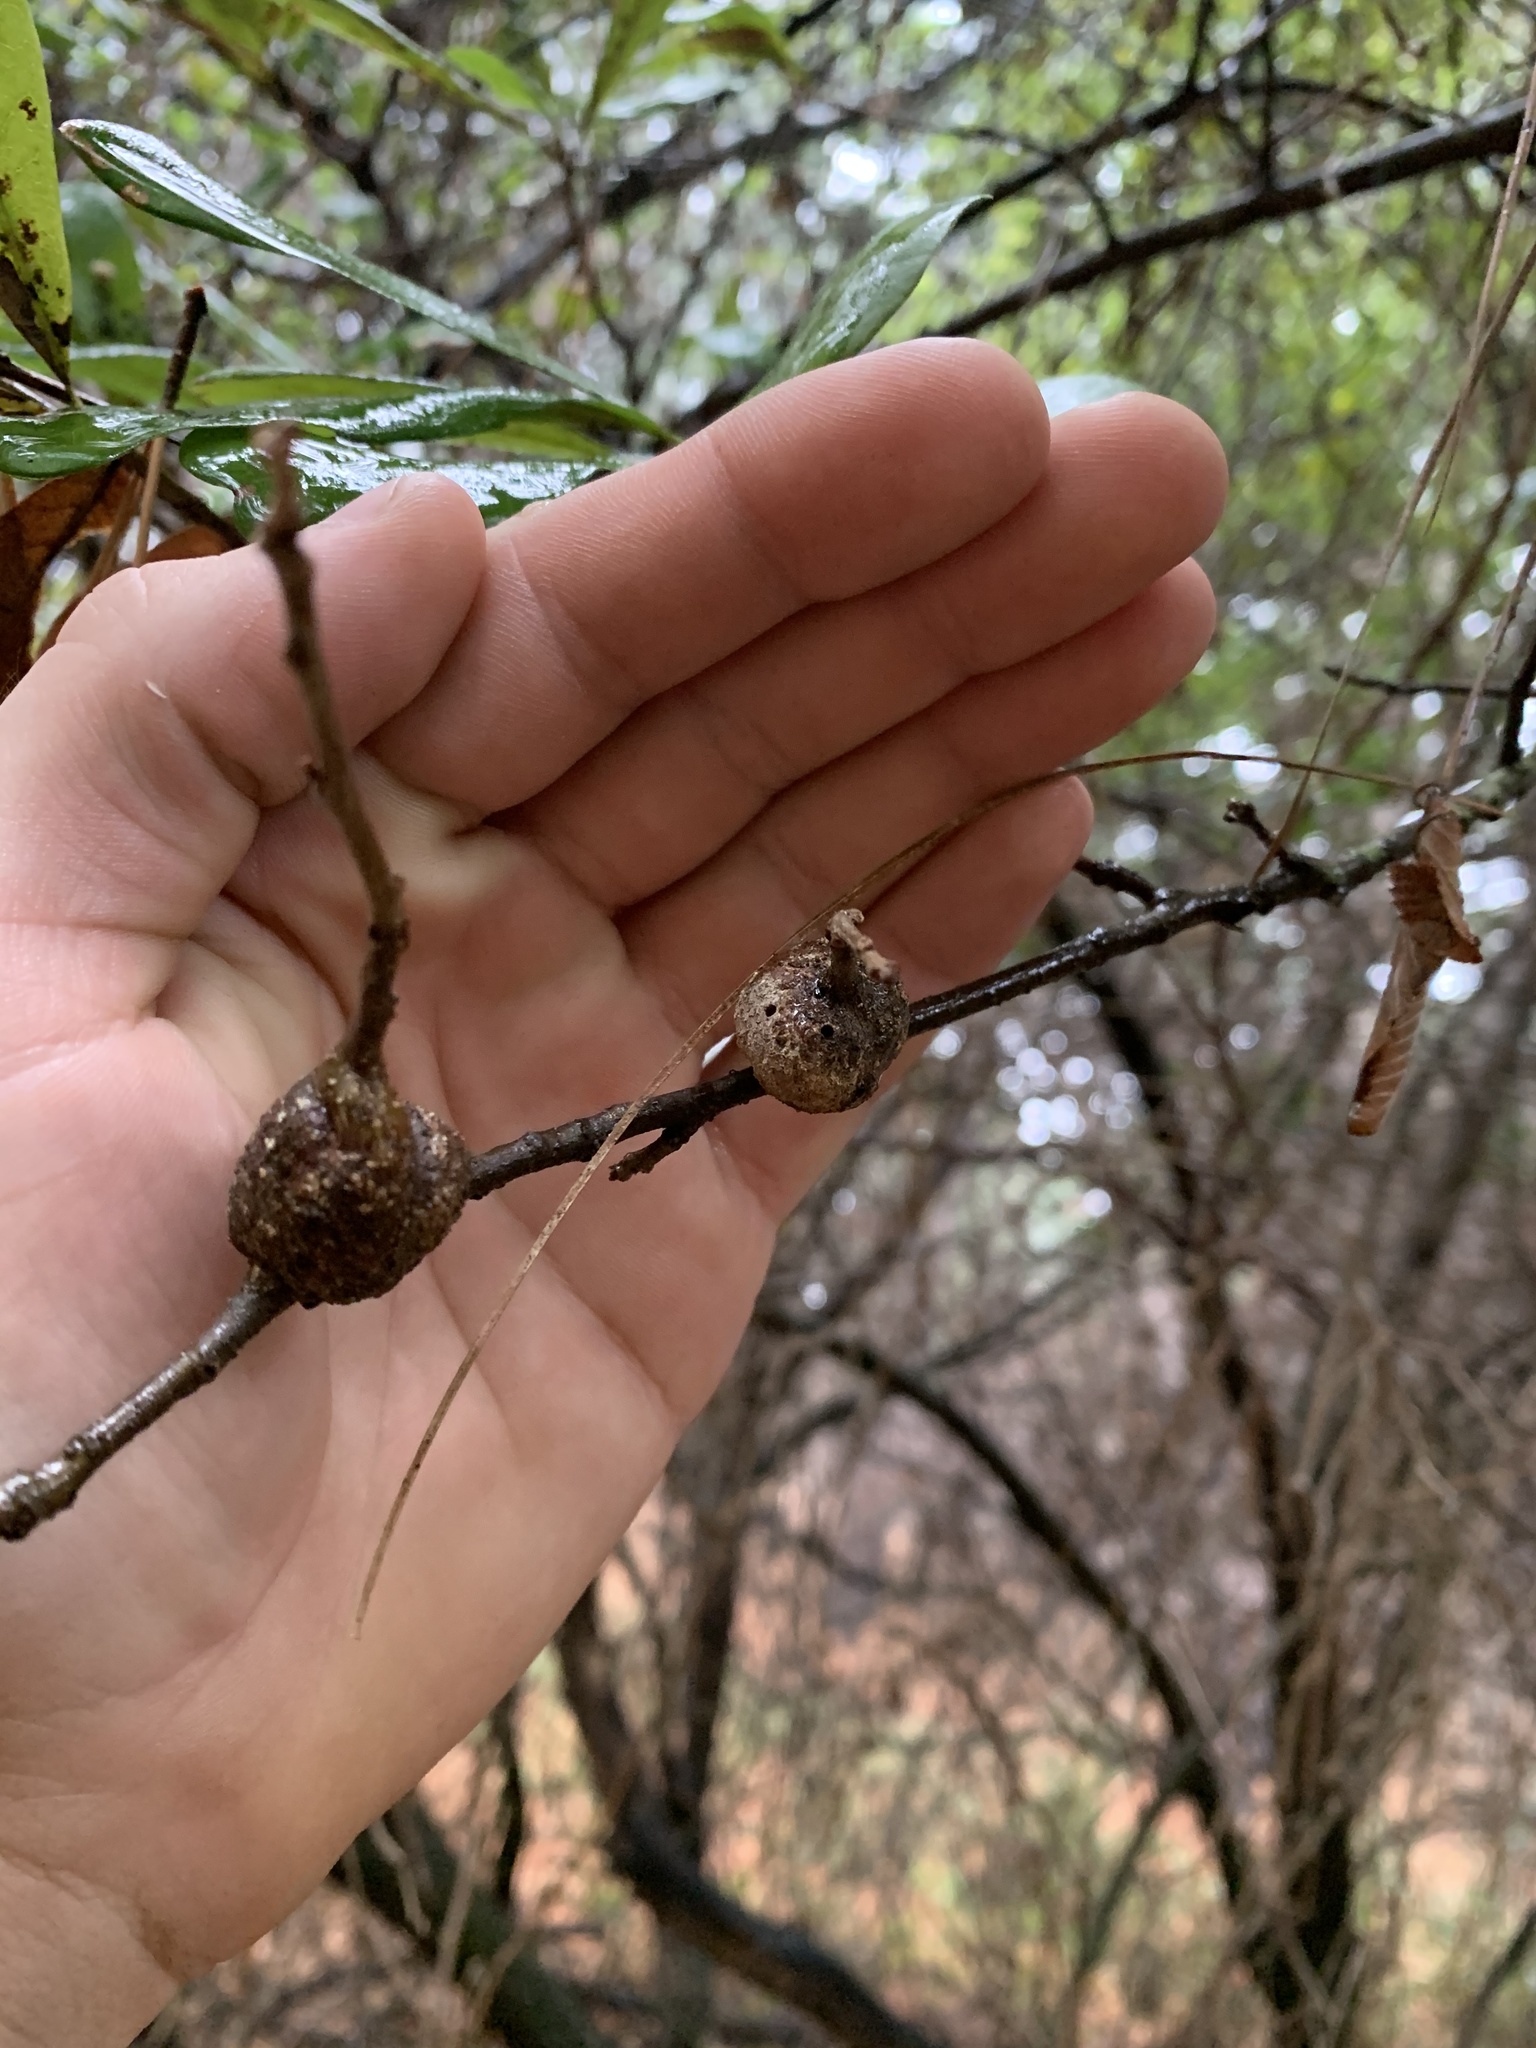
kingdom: Animalia
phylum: Arthropoda
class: Insecta
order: Hymenoptera
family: Cynipidae
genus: Callirhytis
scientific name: Callirhytis
